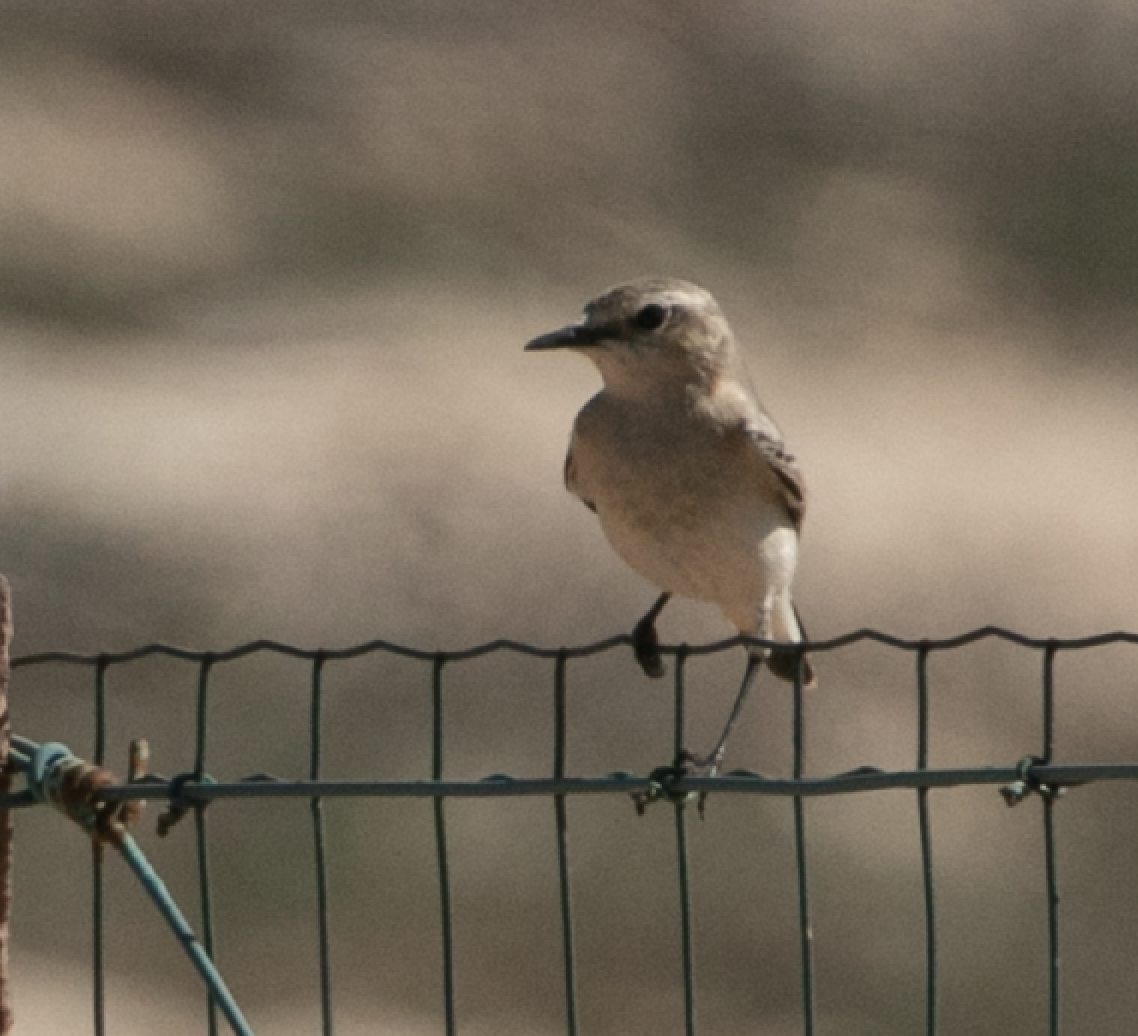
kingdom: Animalia
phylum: Chordata
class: Aves
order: Passeriformes
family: Muscicapidae
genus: Oenanthe
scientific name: Oenanthe oenanthe
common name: Northern wheatear
